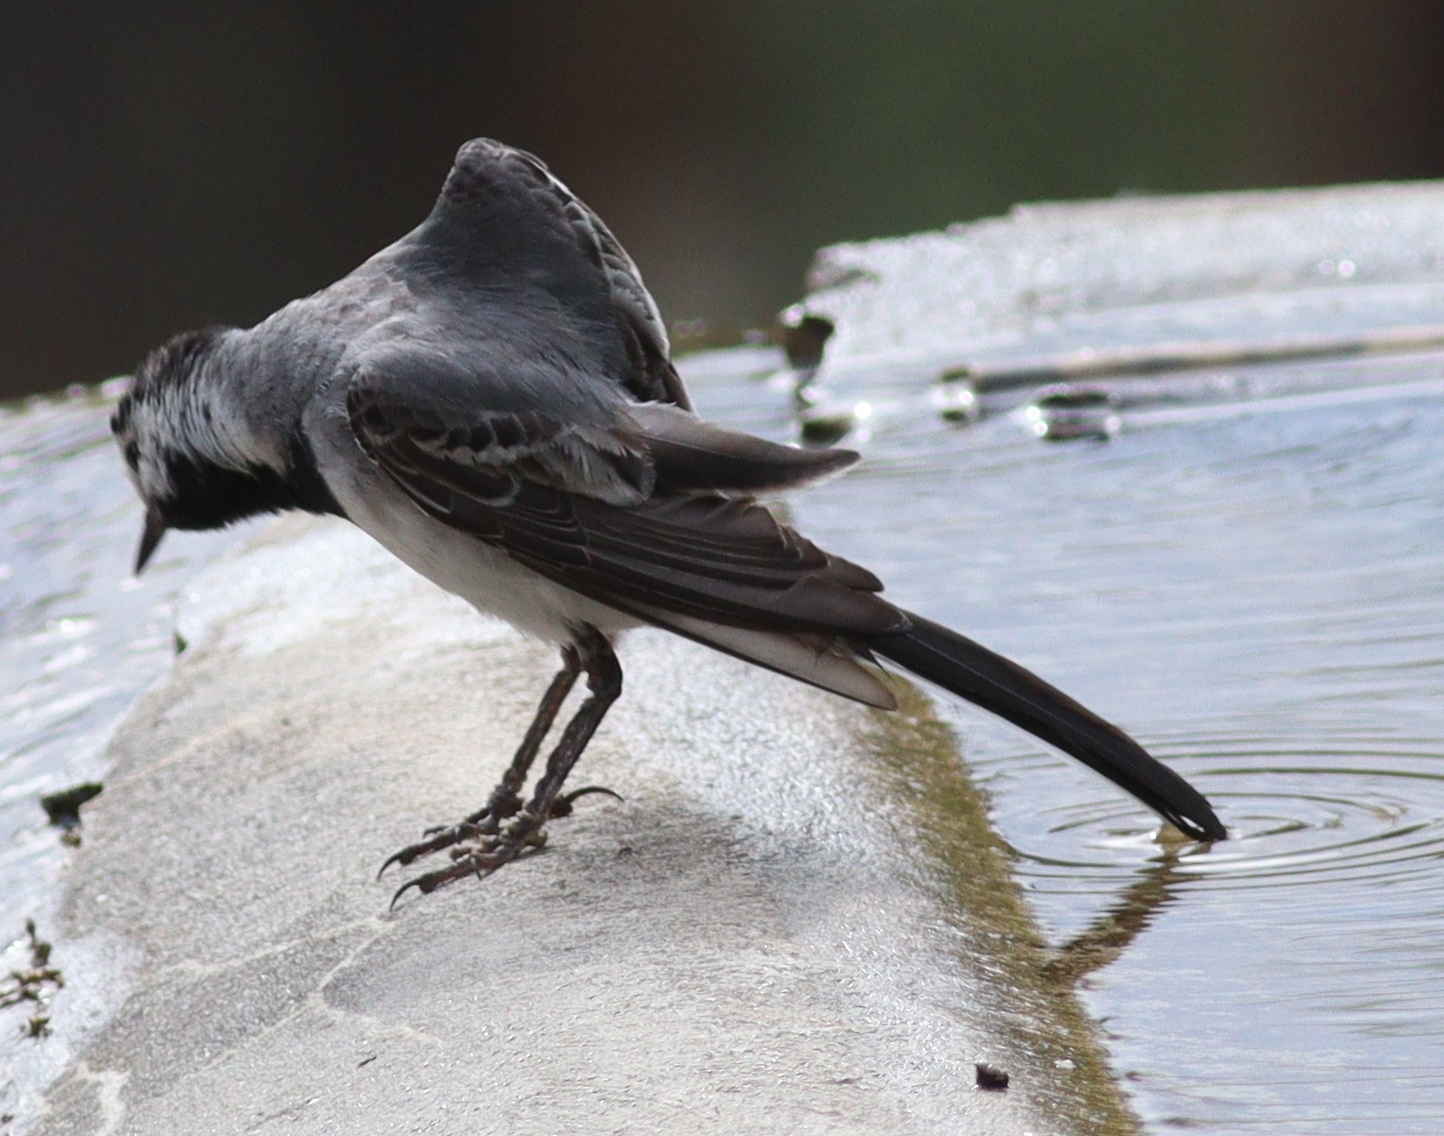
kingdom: Animalia
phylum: Chordata
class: Aves
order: Passeriformes
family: Motacillidae
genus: Motacilla
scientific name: Motacilla alba
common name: White wagtail
